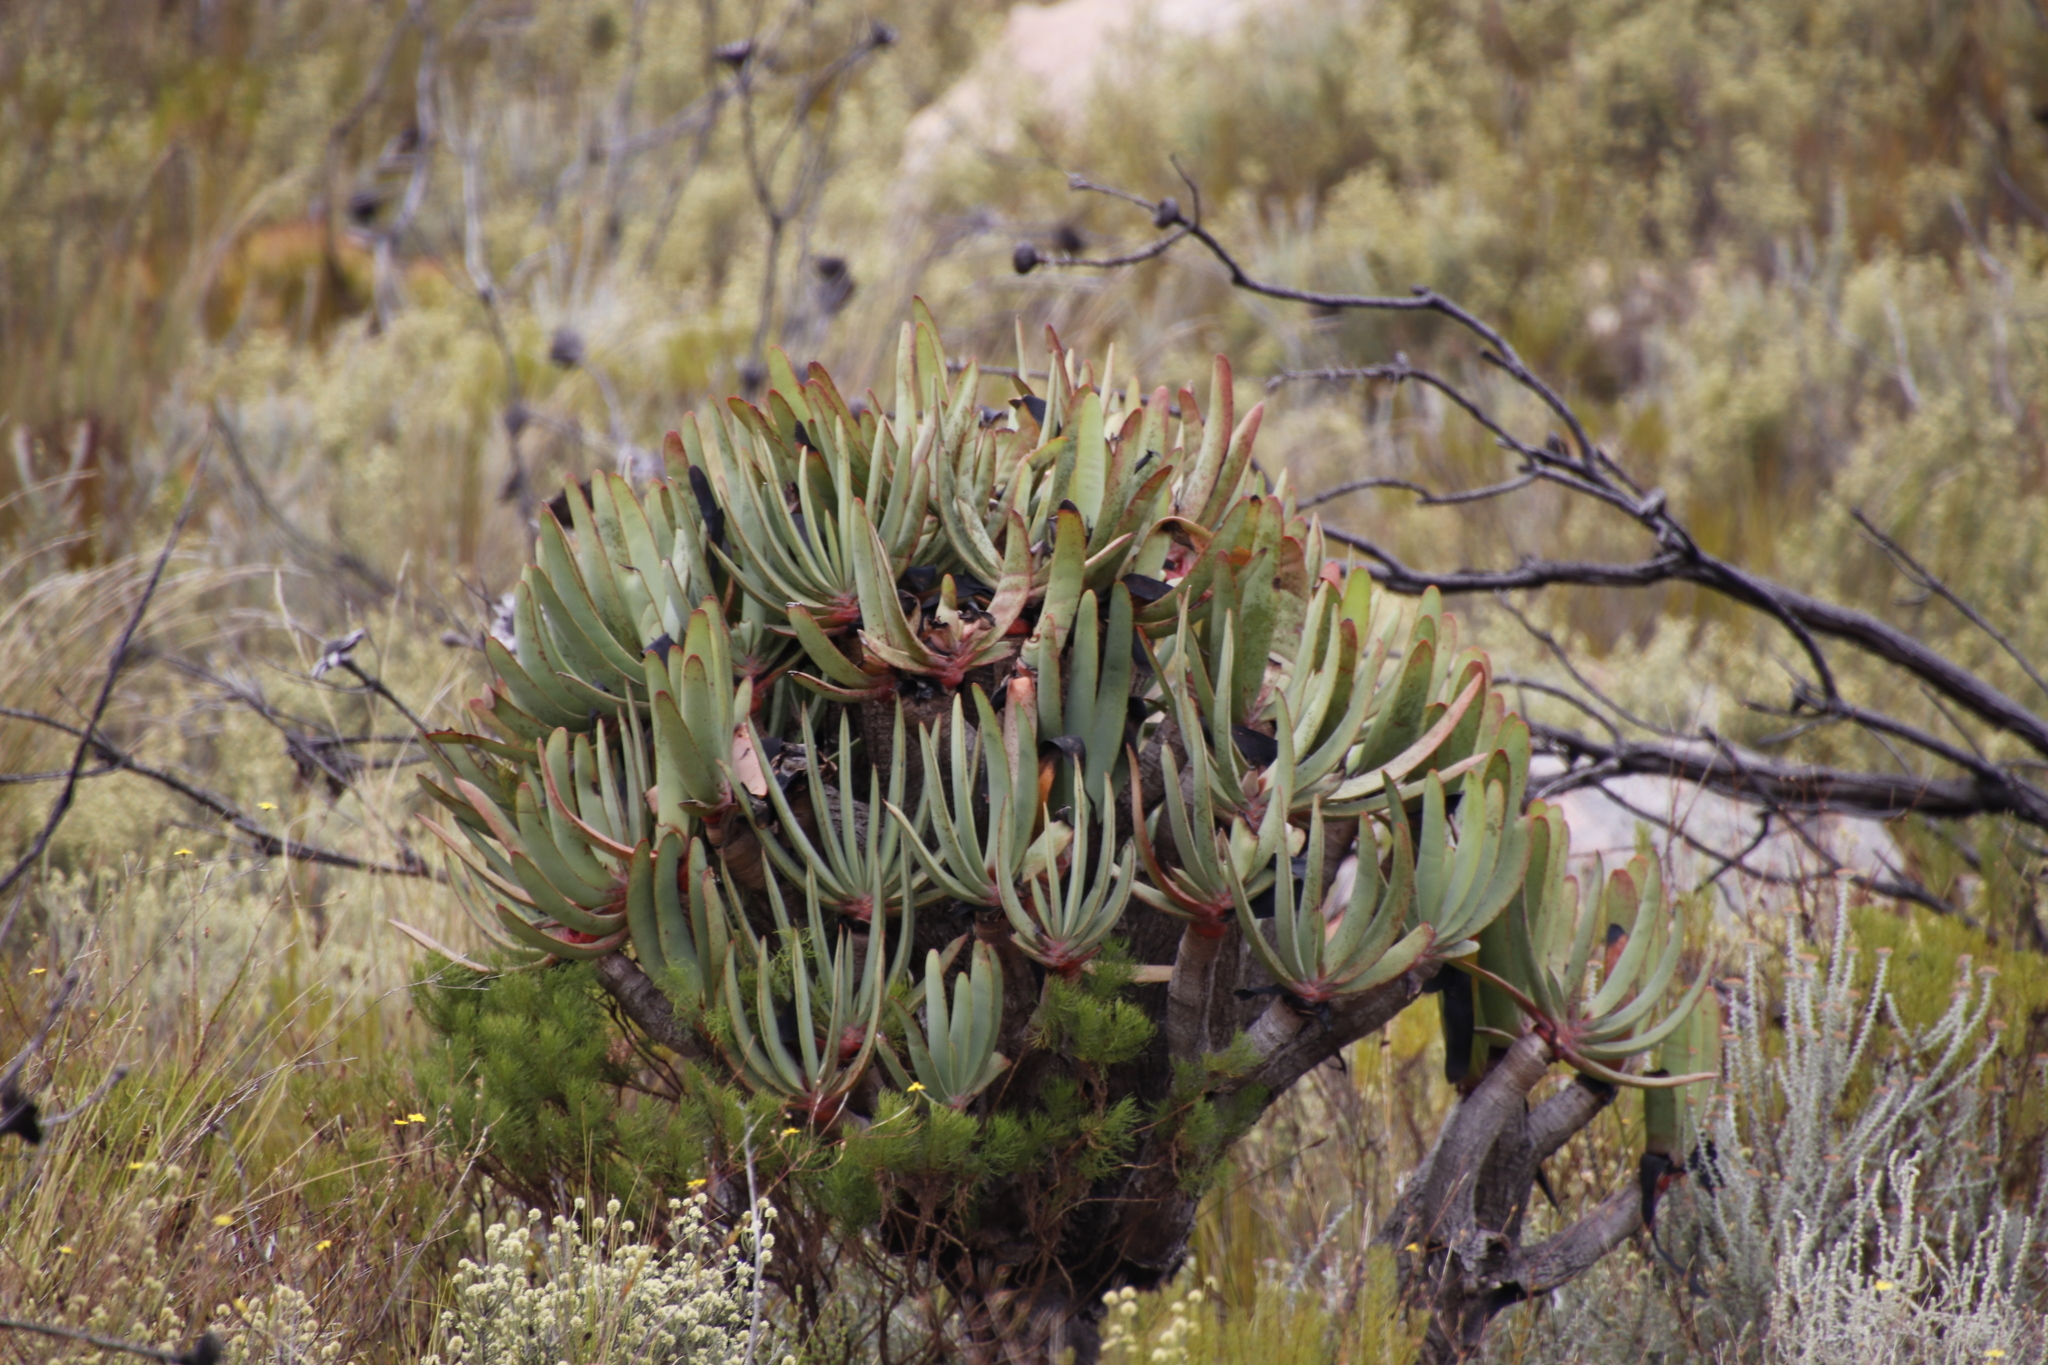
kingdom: Plantae
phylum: Tracheophyta
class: Liliopsida
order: Asparagales
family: Asphodelaceae
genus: Kumara
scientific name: Kumara plicatilis
